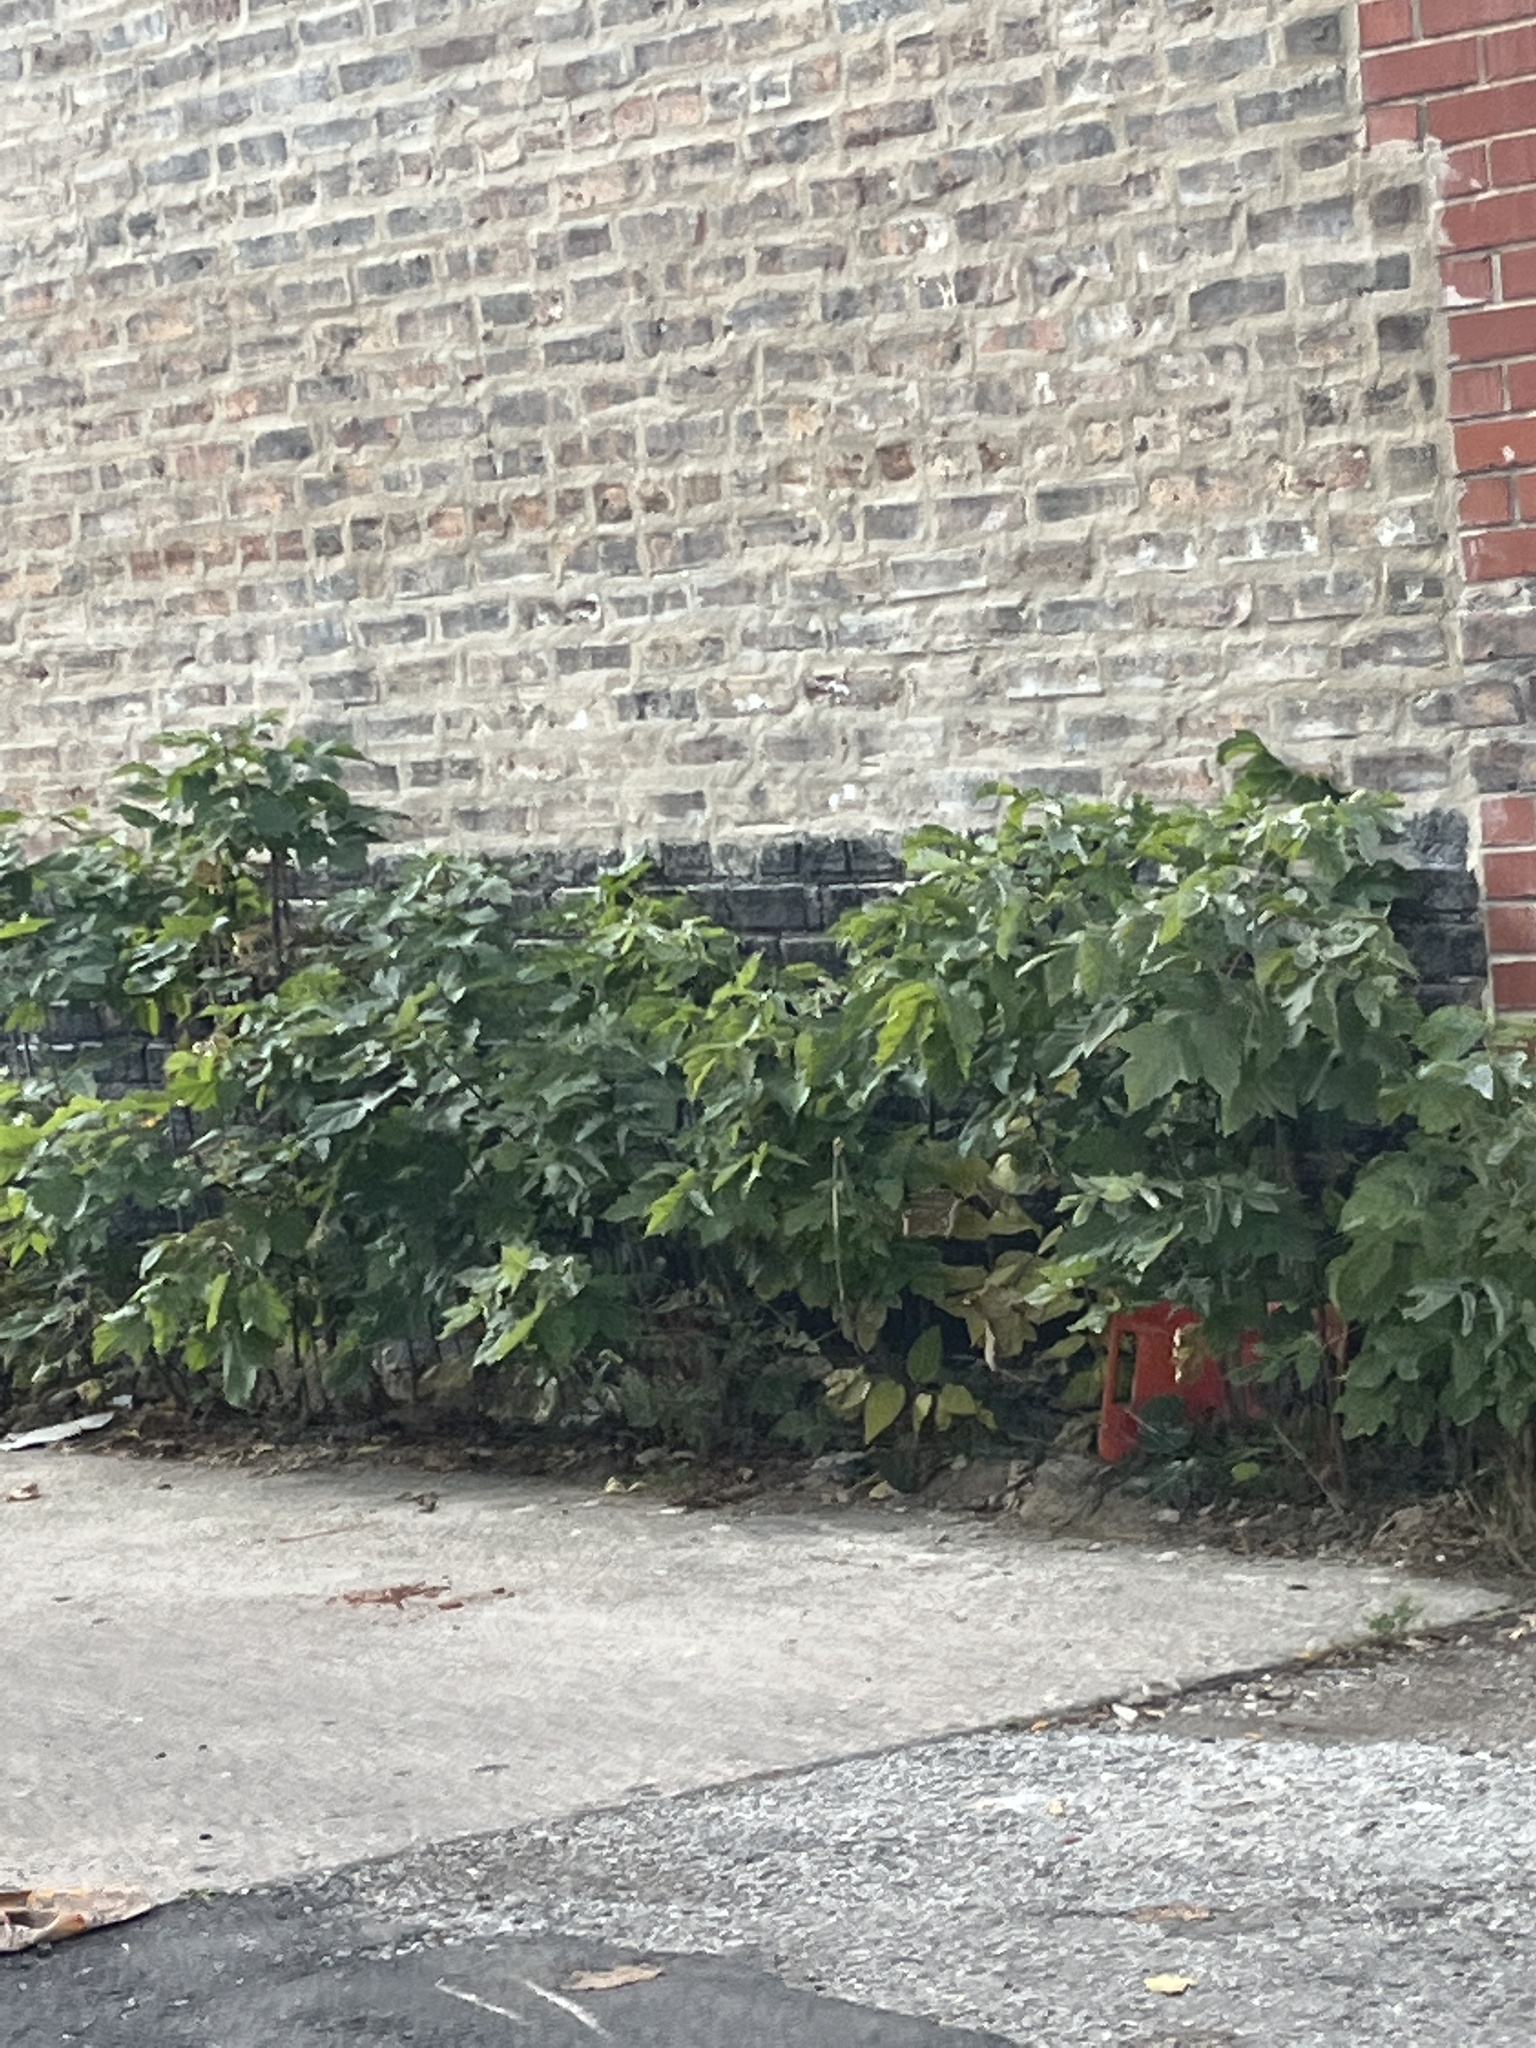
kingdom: Plantae
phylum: Tracheophyta
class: Magnoliopsida
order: Rosales
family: Moraceae
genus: Broussonetia
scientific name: Broussonetia papyrifera
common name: Paper mulberry
